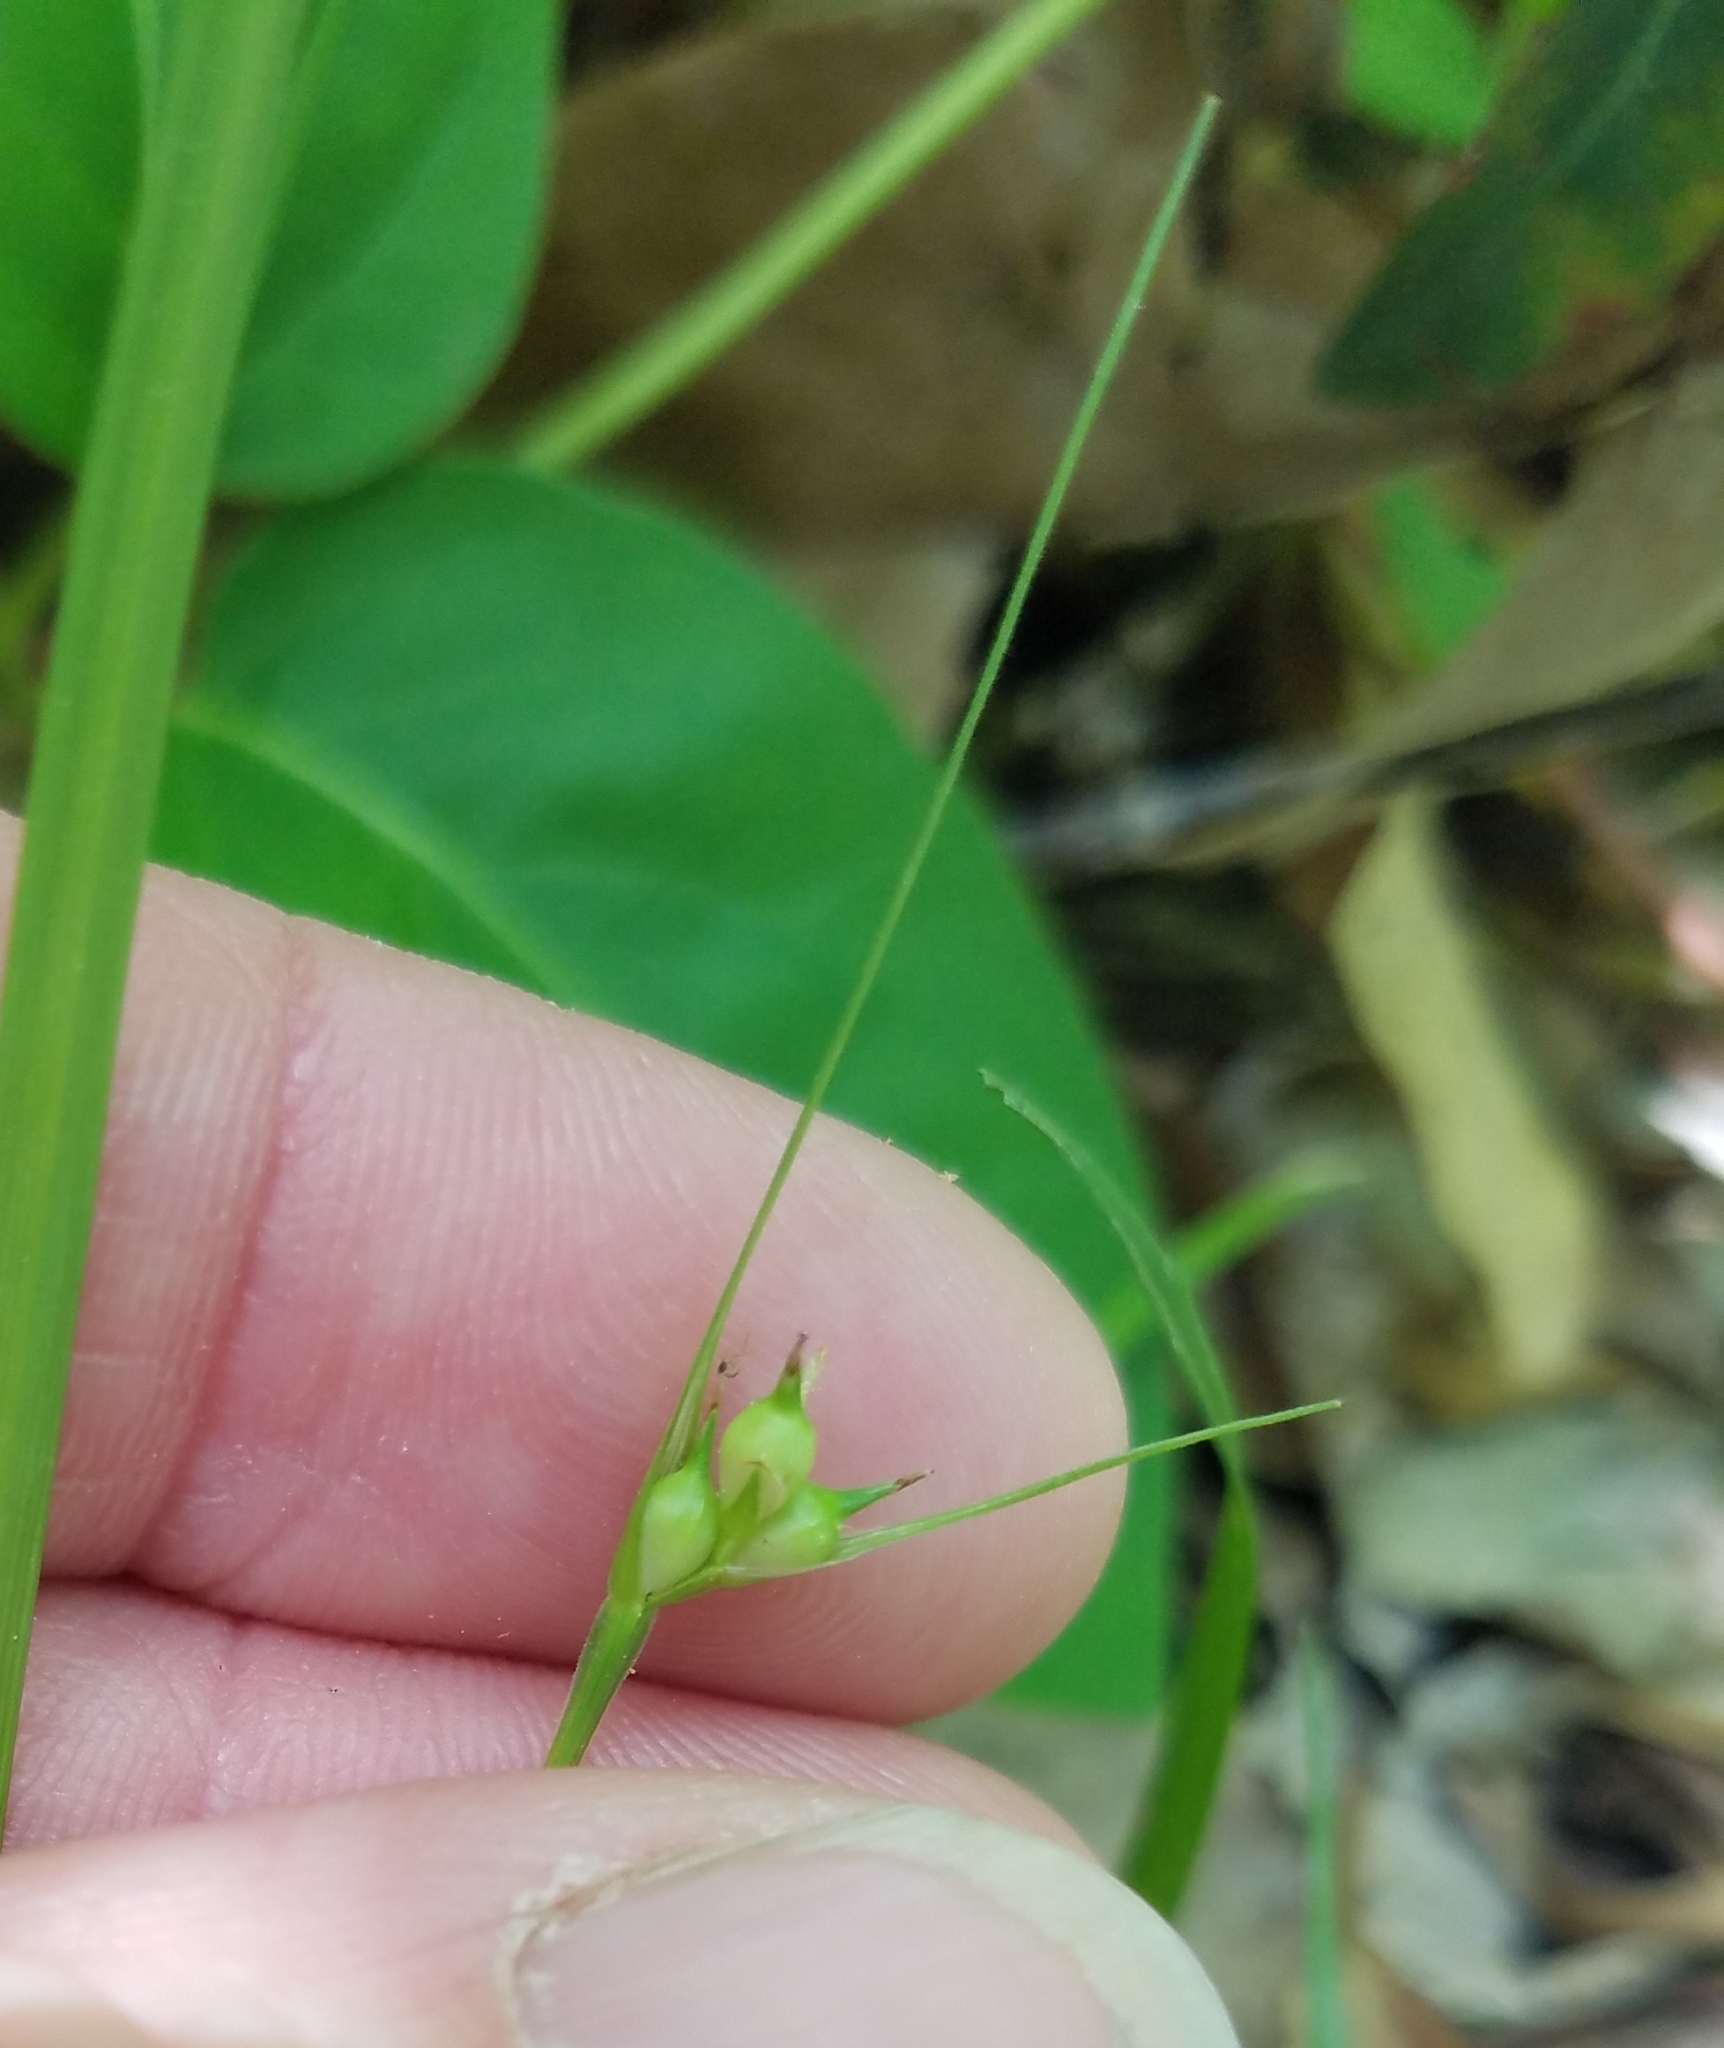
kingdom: Plantae
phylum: Tracheophyta
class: Liliopsida
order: Poales
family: Cyperaceae
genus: Carex
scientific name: Carex jamesii
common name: Grass sedge
